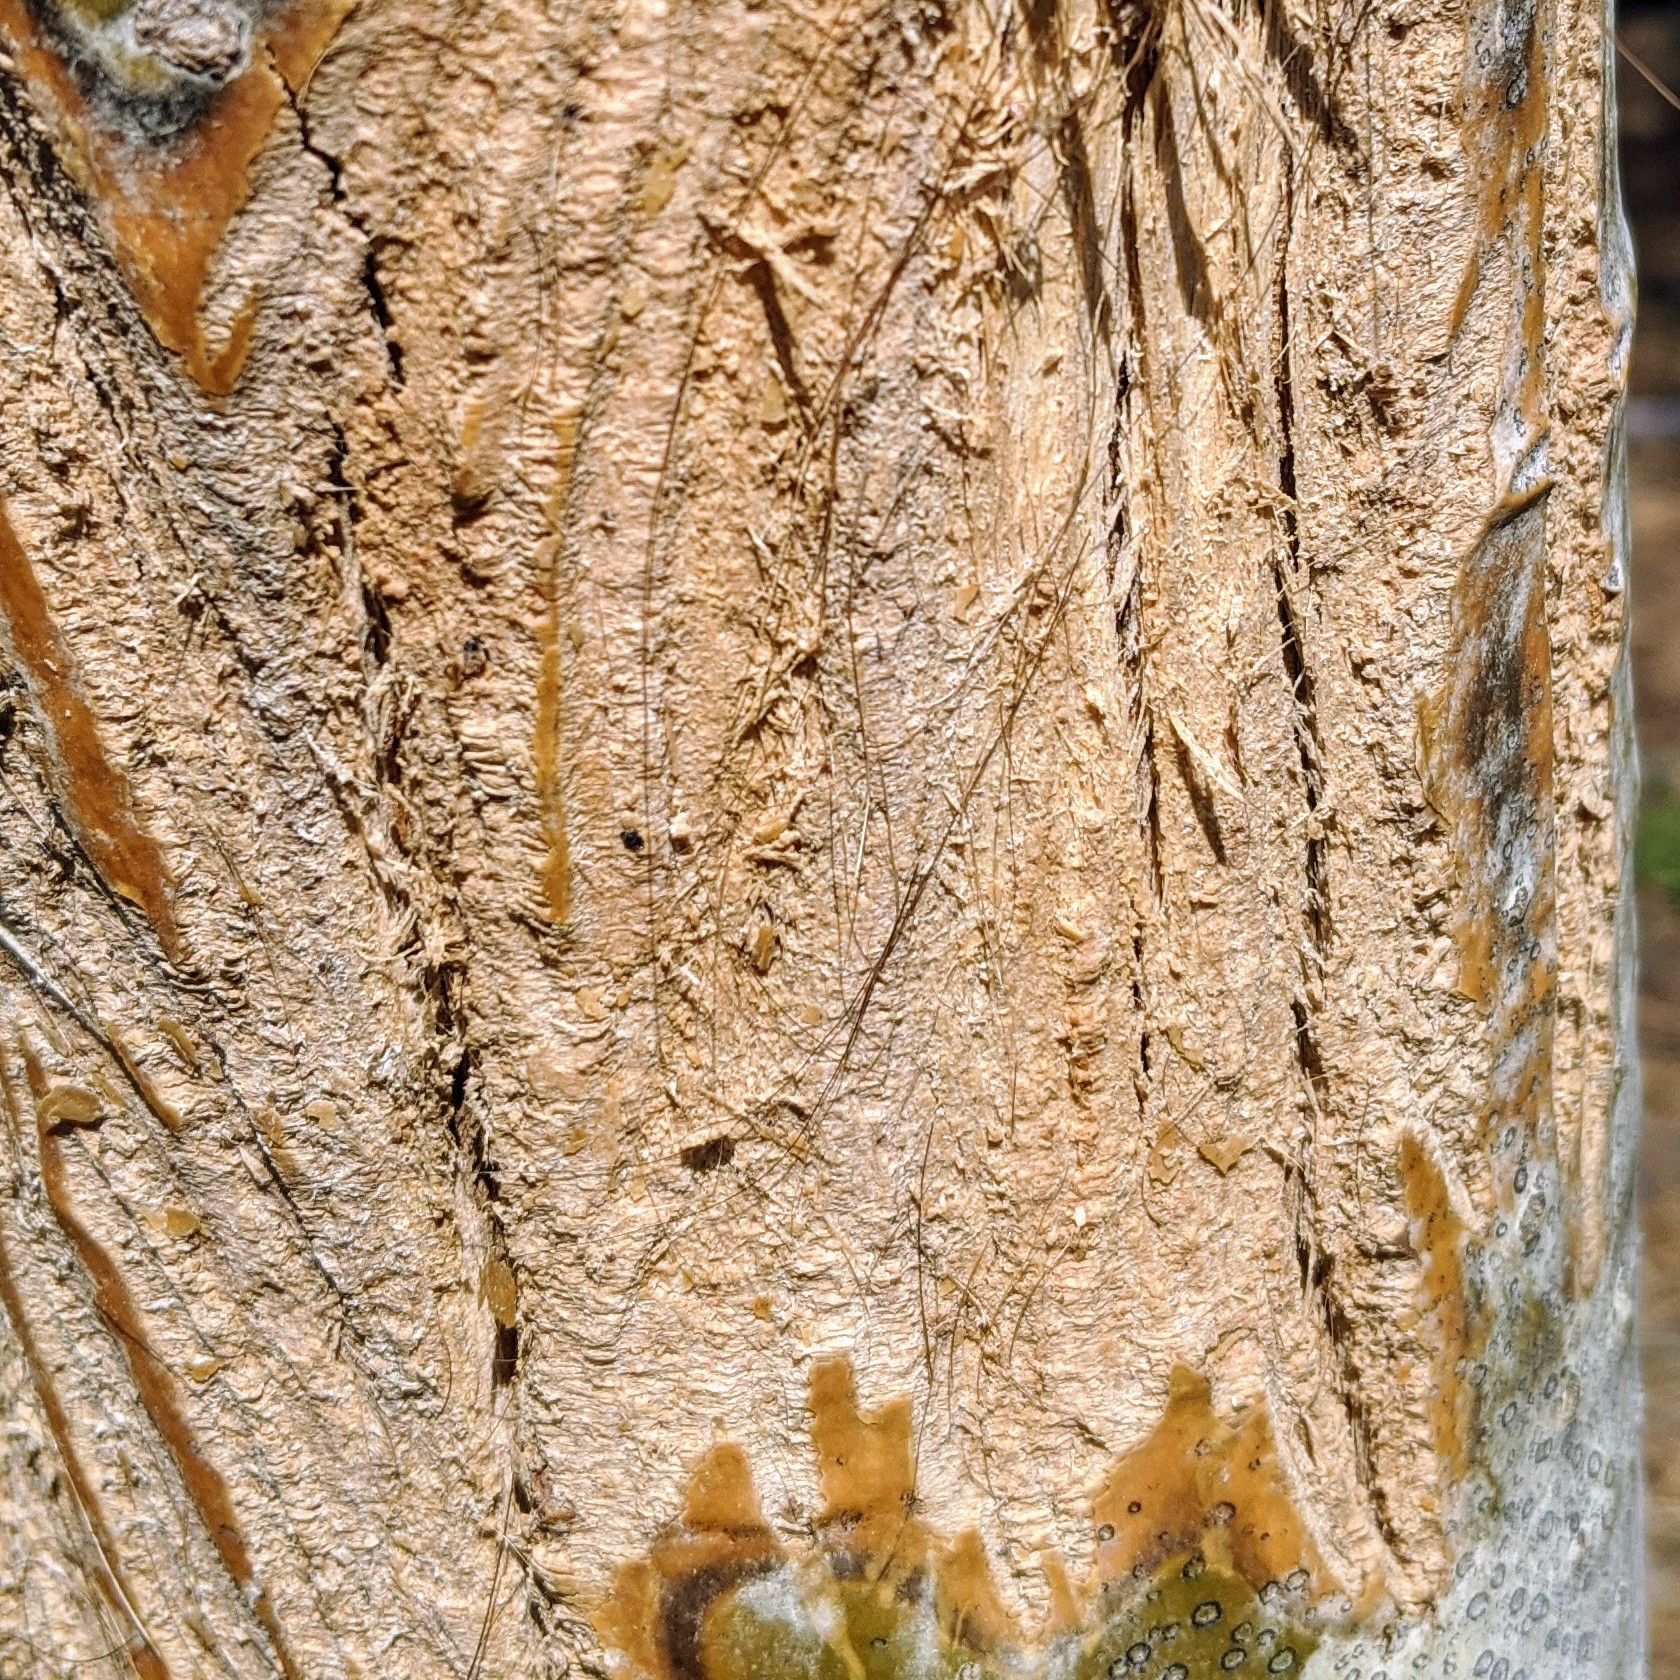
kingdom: Animalia
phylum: Chordata
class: Mammalia
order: Carnivora
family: Ursidae
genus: Ursus
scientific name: Ursus americanus
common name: American black bear
